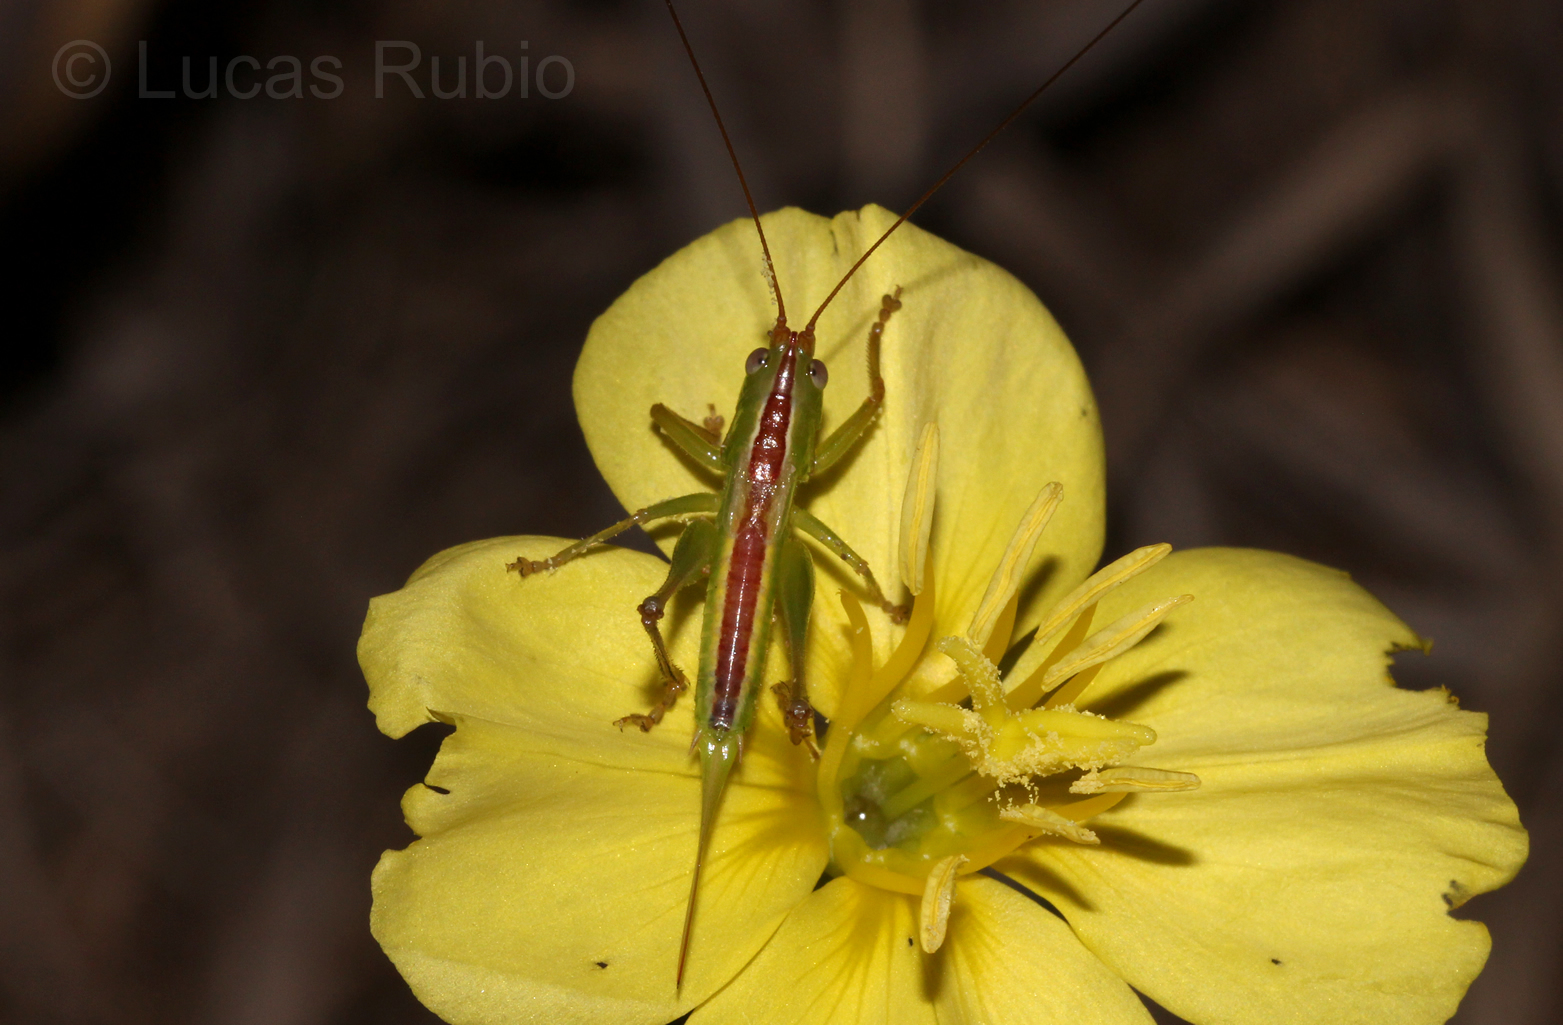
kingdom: Animalia
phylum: Arthropoda
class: Insecta
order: Orthoptera
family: Tettigoniidae
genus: Conocephalus
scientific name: Conocephalus
